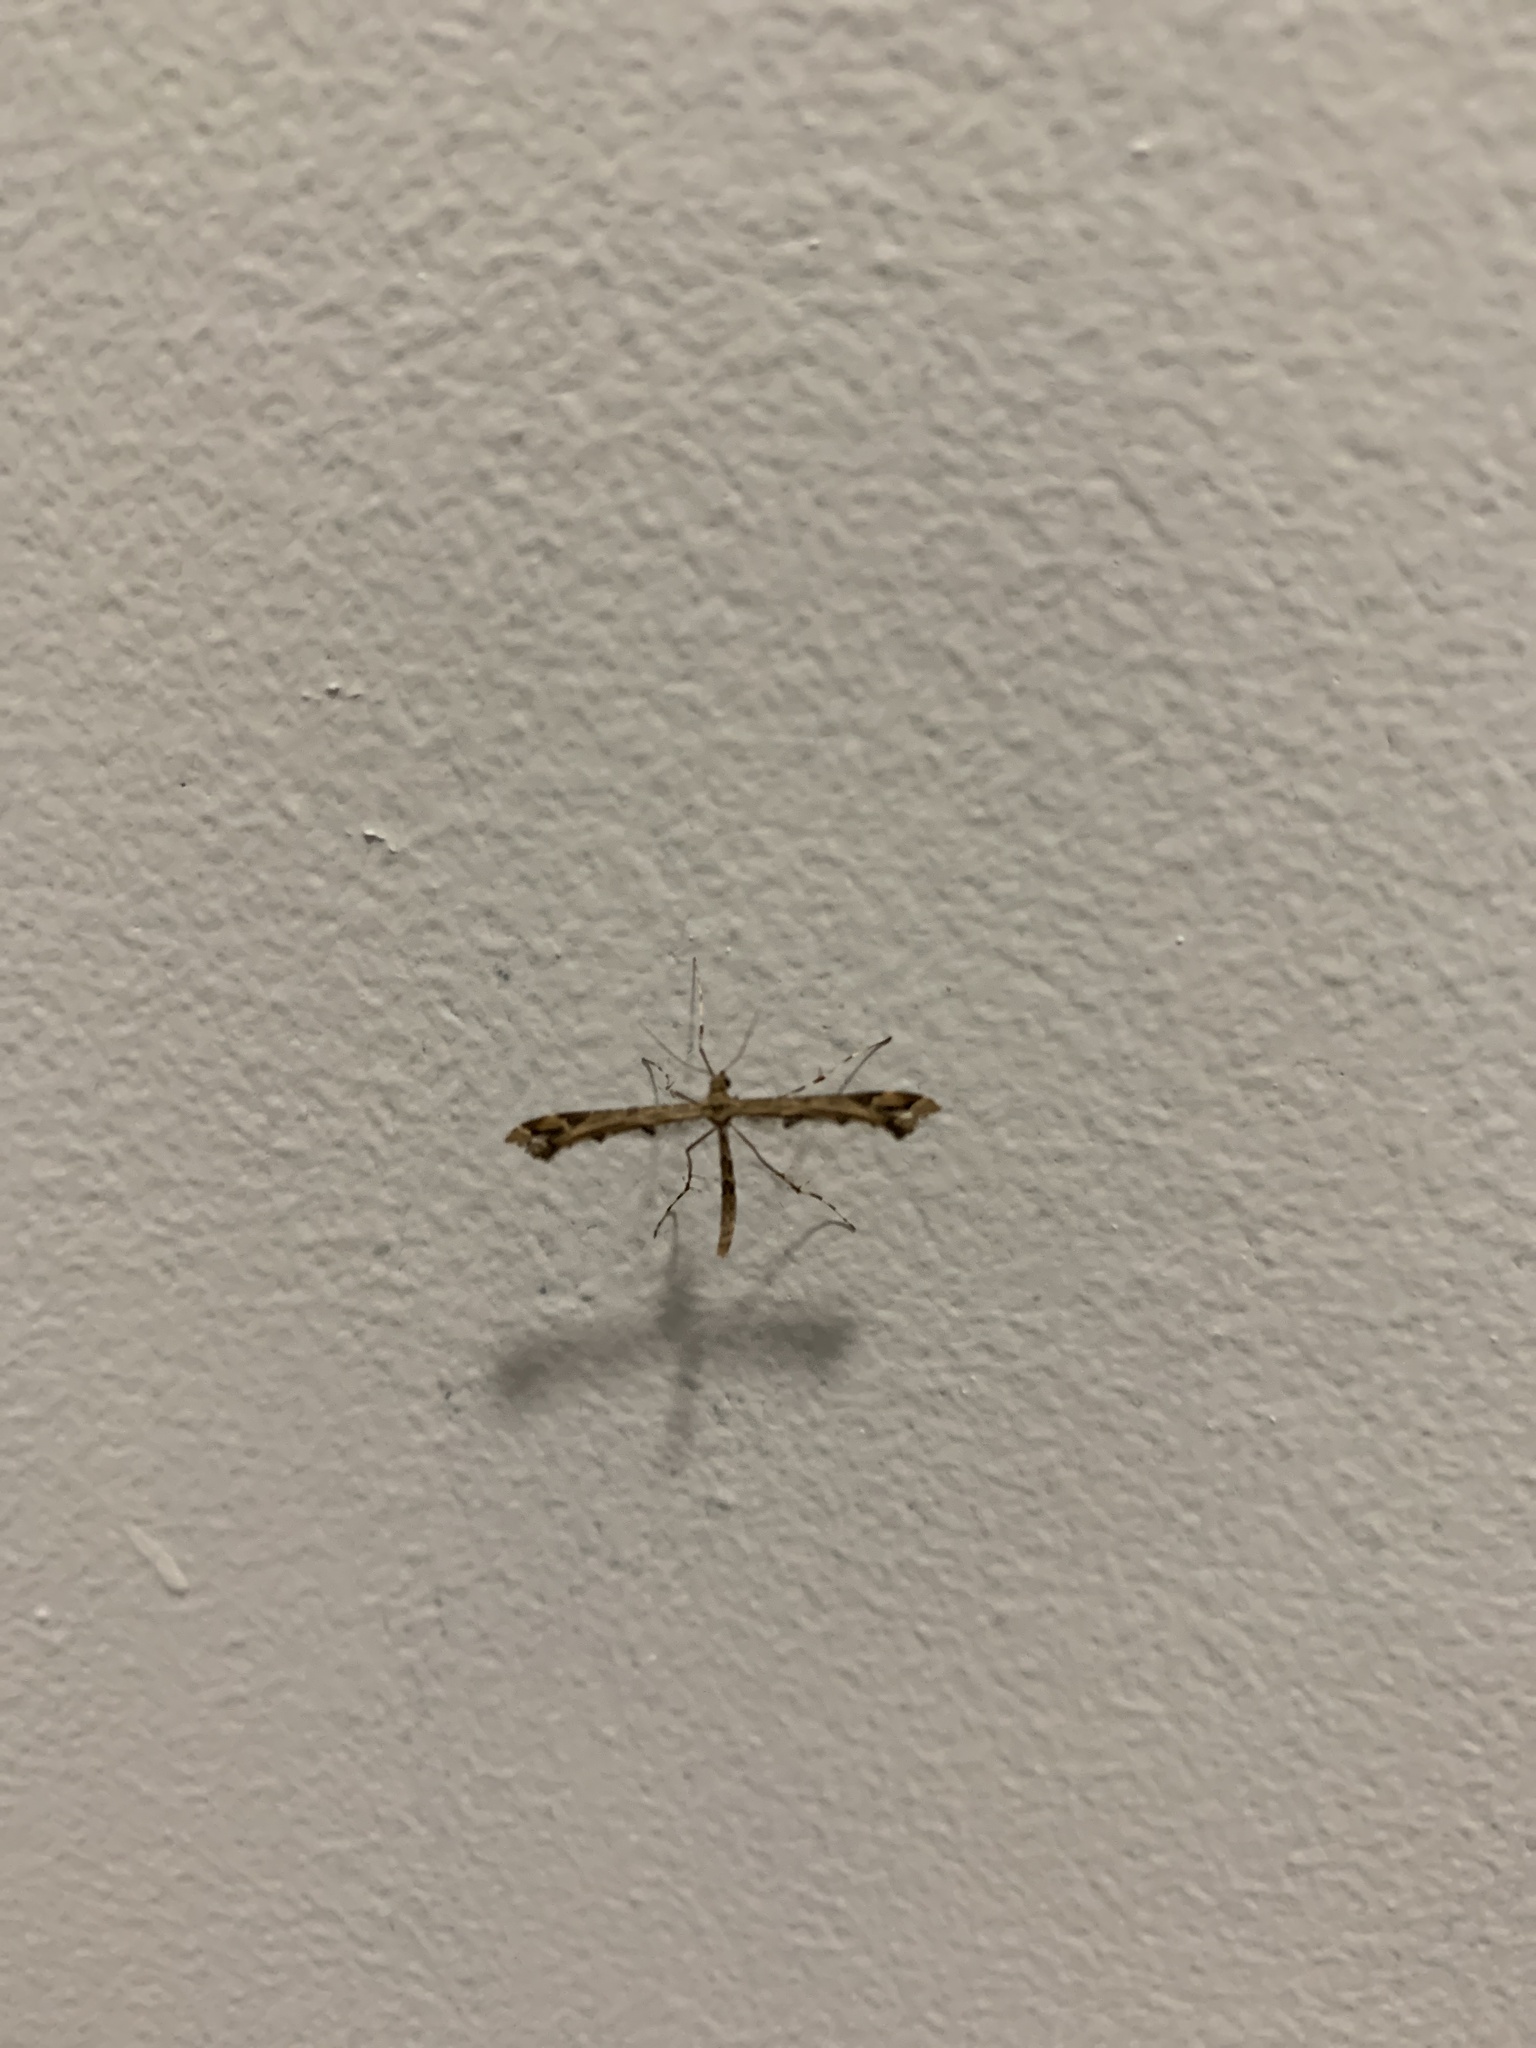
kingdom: Animalia
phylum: Arthropoda
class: Insecta
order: Lepidoptera
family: Pterophoridae
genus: Amblyptilia
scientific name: Amblyptilia acanthadactyla
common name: Beautiful plume
